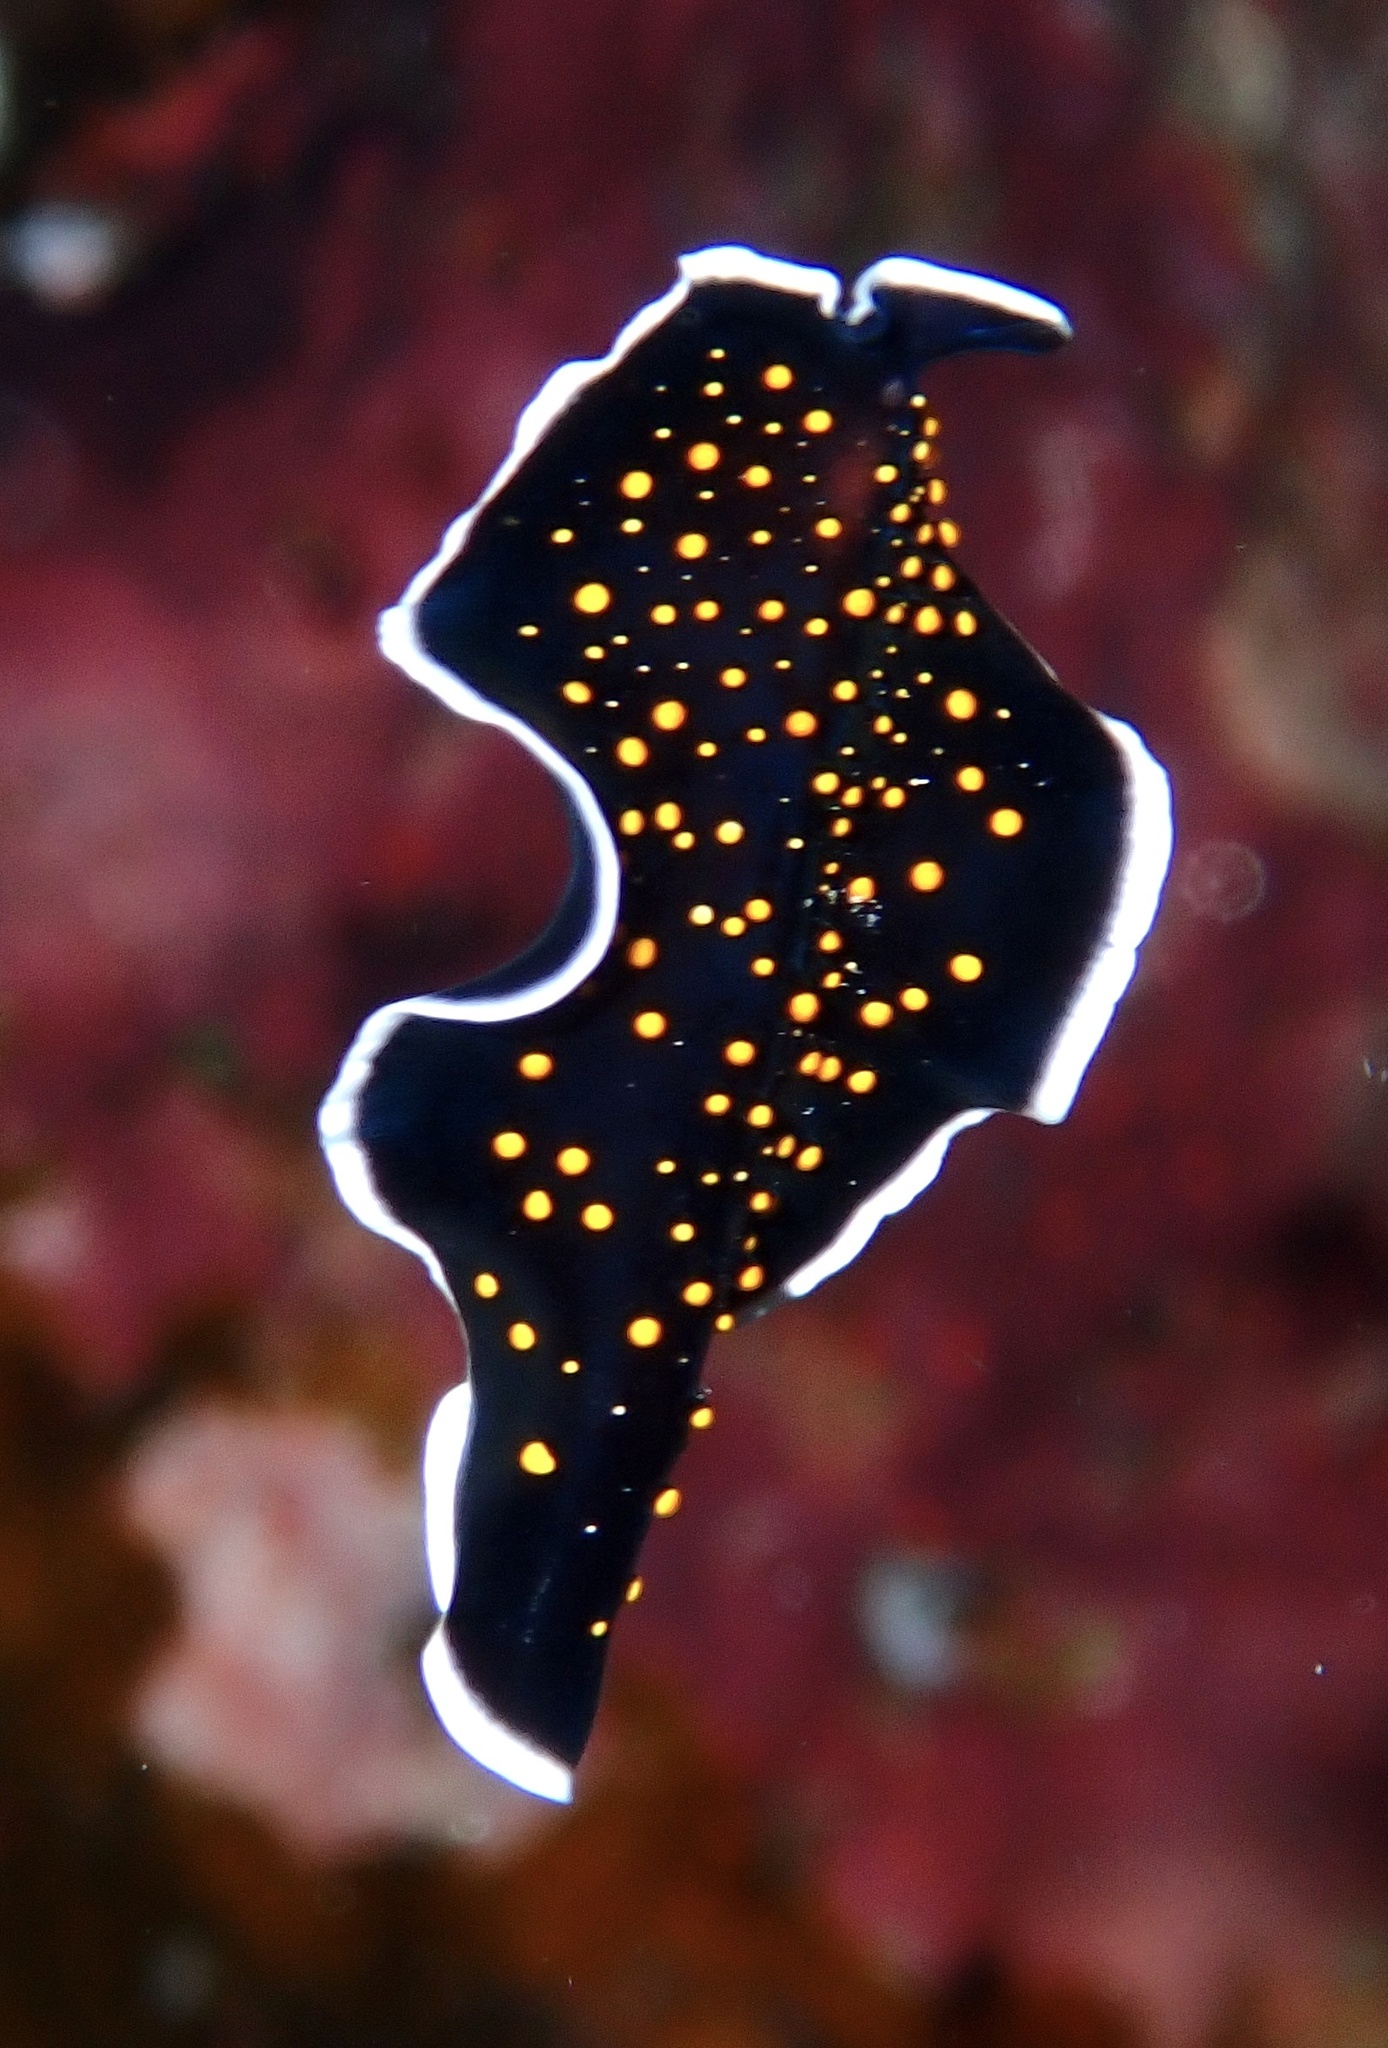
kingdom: Animalia
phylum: Platyhelminthes
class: Turbellaria
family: Pseudocerotidae
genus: Thysanozoon
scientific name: Thysanozoon nigropapillosum
